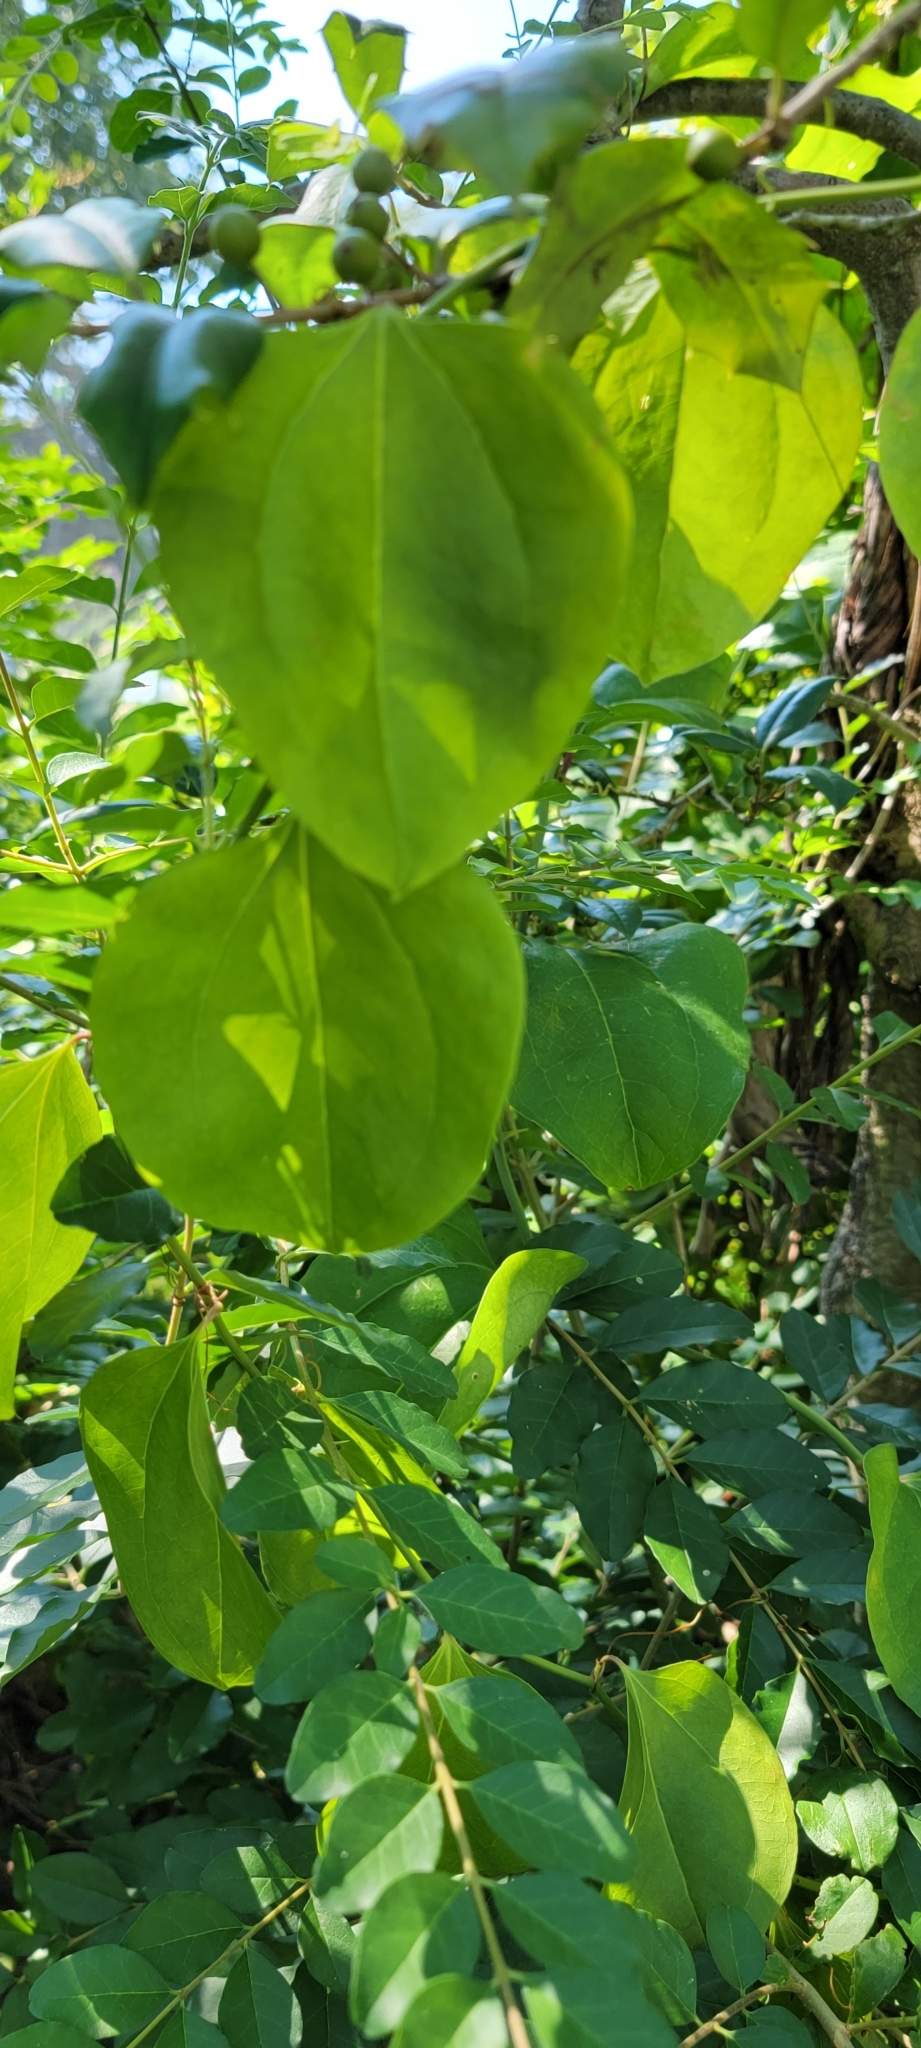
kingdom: Plantae
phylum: Tracheophyta
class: Liliopsida
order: Liliales
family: Smilacaceae
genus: Smilax
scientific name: Smilax rotundifolia
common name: Bullbriar
